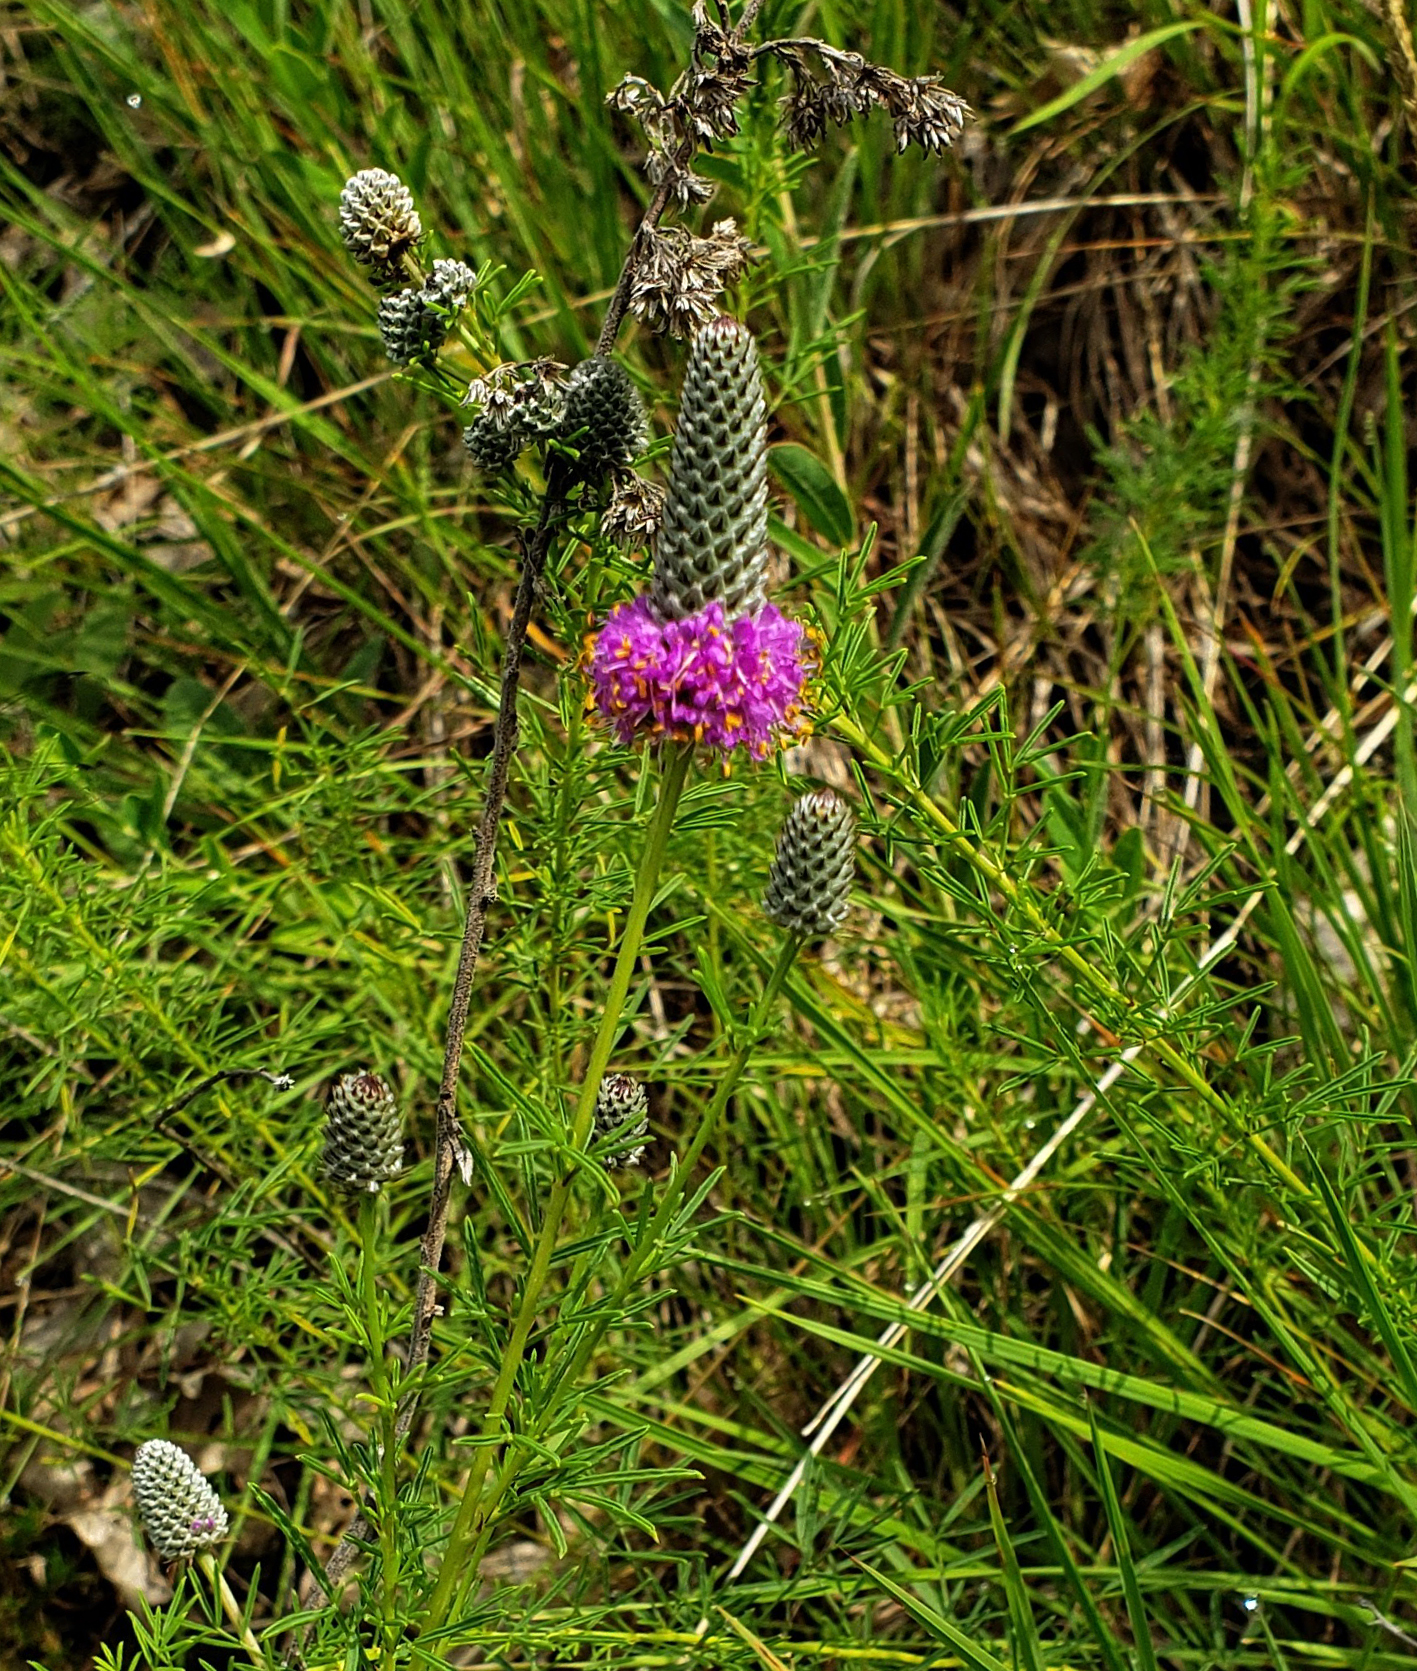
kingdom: Plantae
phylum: Tracheophyta
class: Magnoliopsida
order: Fabales
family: Fabaceae
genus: Dalea
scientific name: Dalea purpurea
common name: Purple prairie-clover
